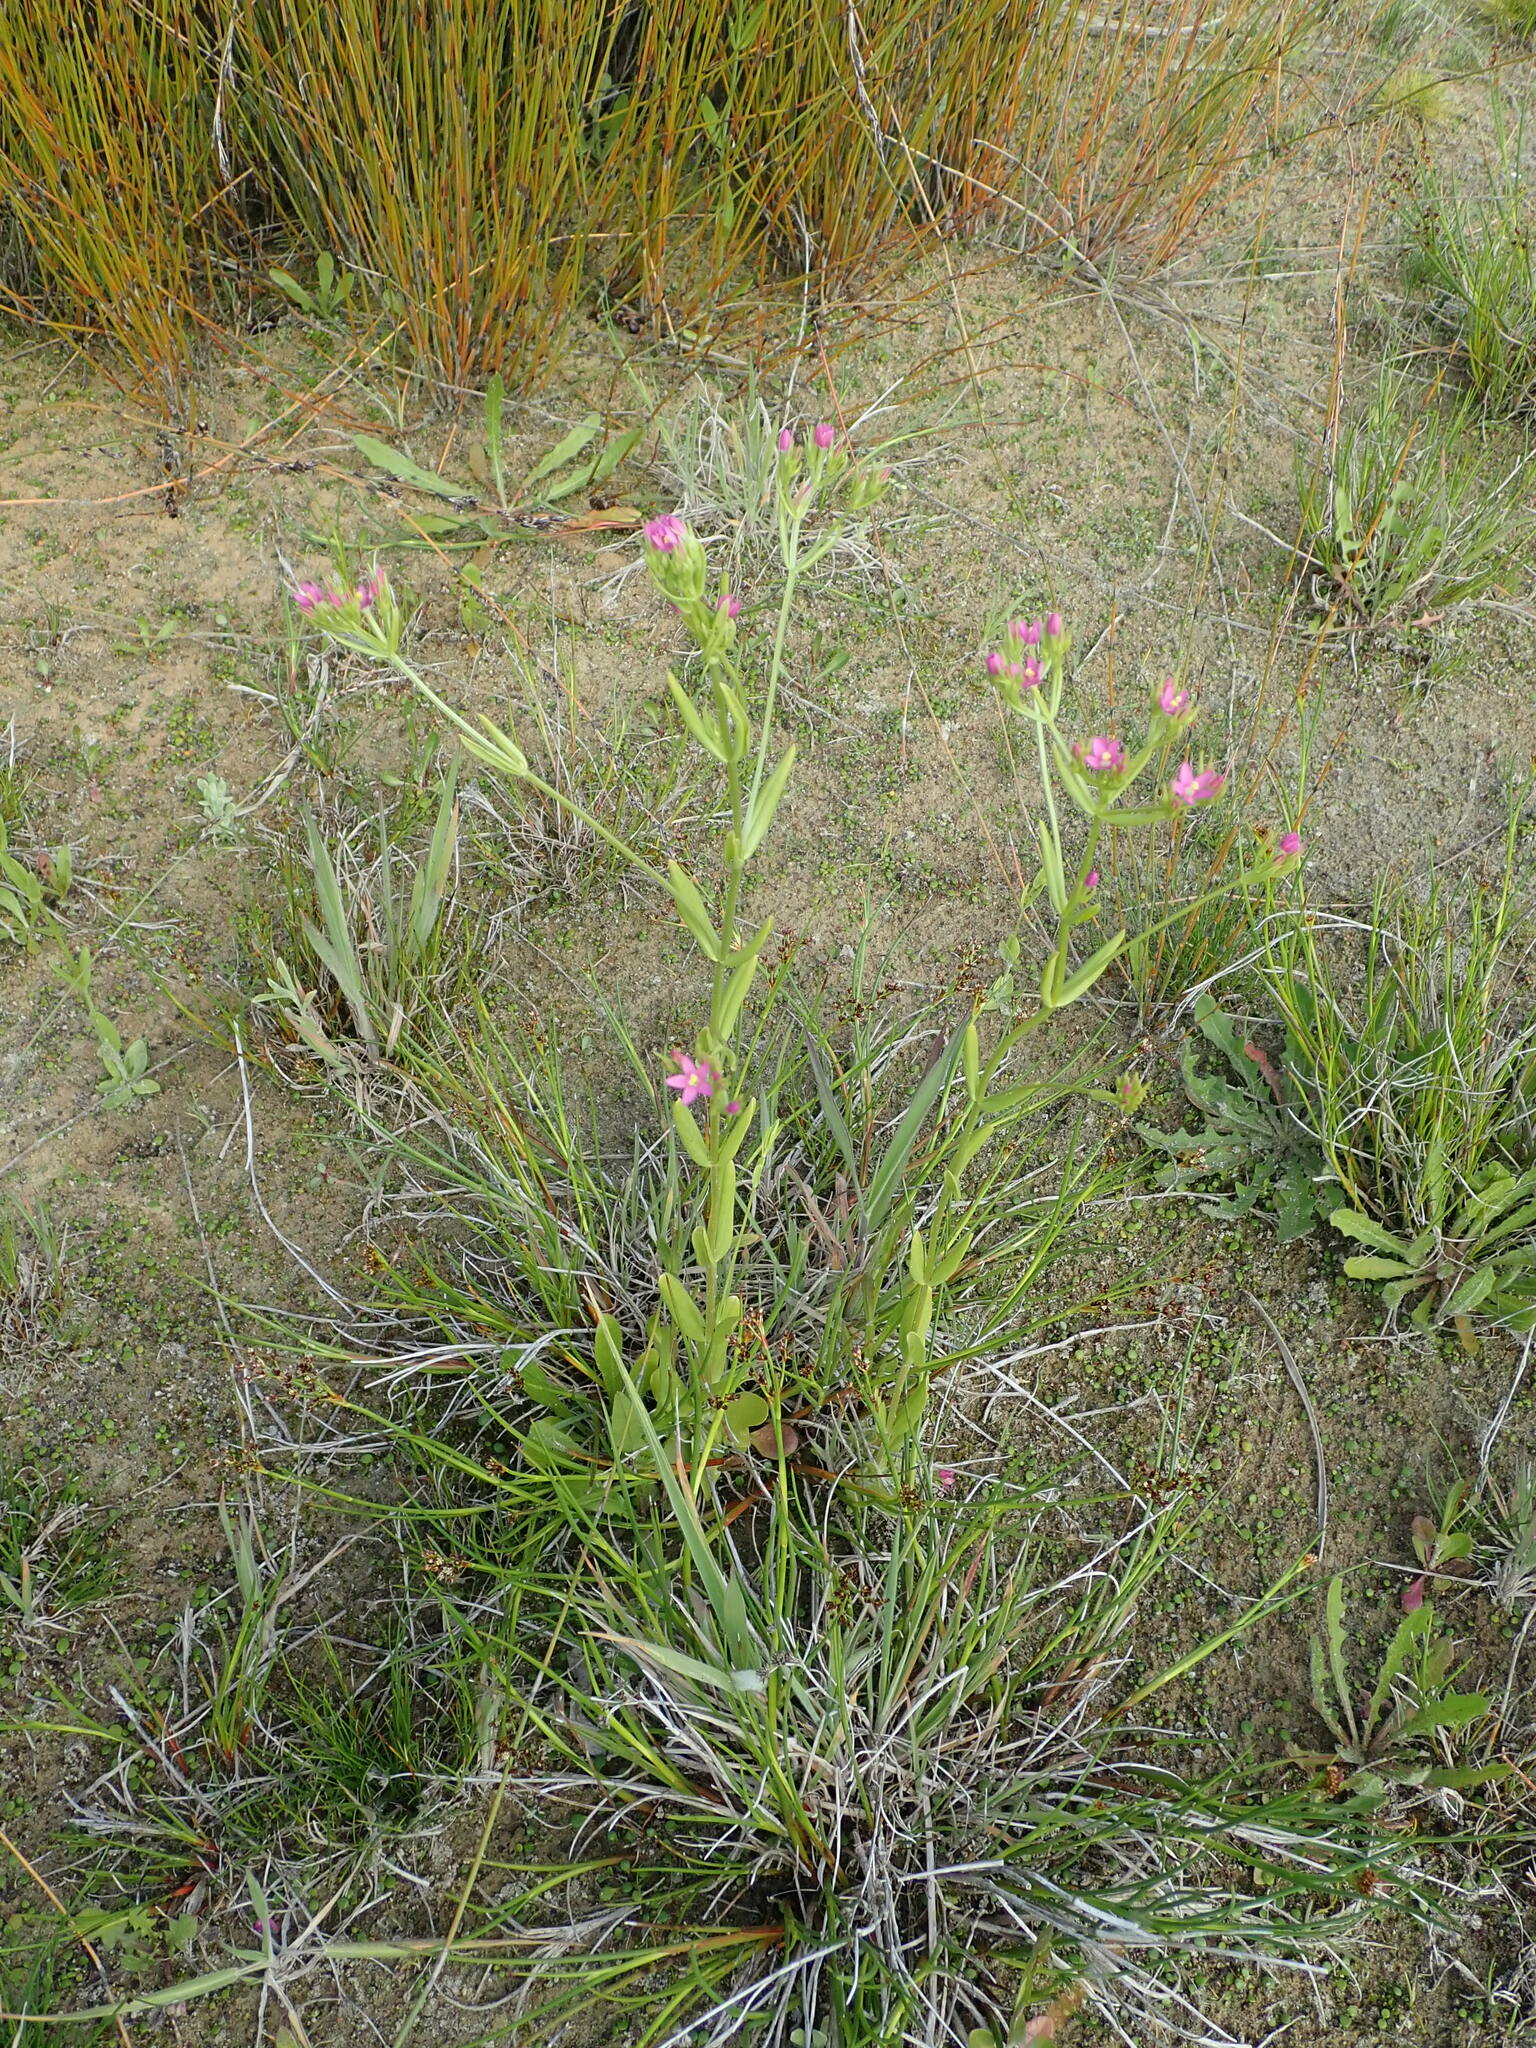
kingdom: Plantae
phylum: Tracheophyta
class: Magnoliopsida
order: Gentianales
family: Gentianaceae
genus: Centaurium
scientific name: Centaurium erythraea
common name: Common centaury
